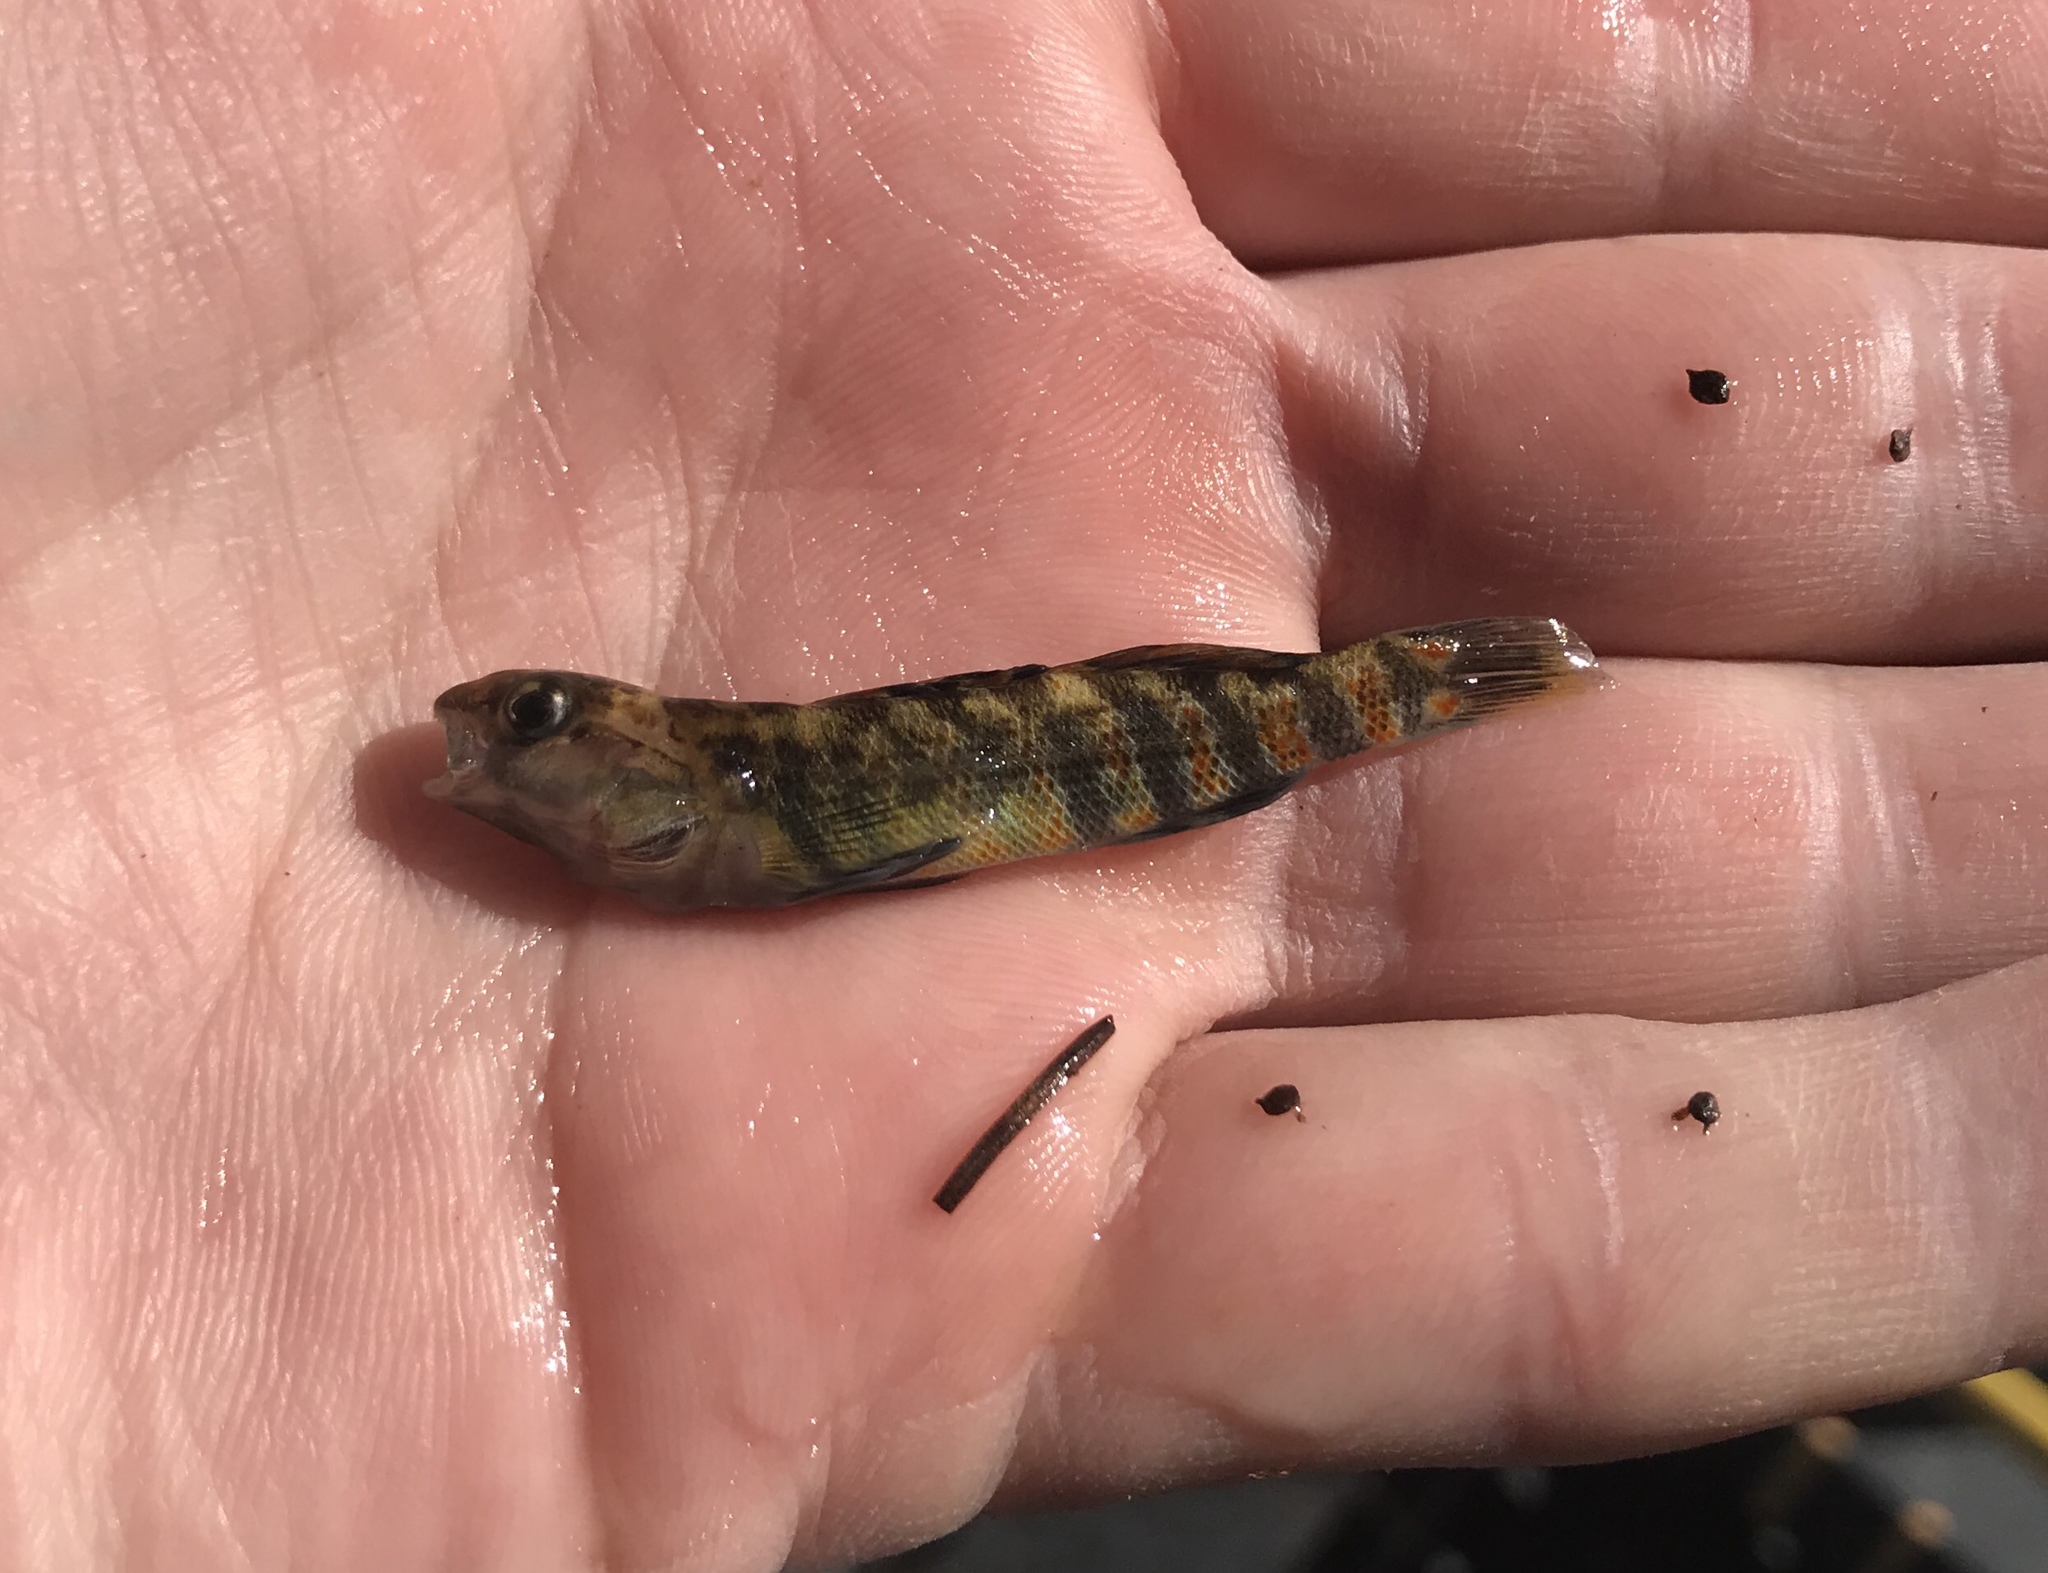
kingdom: Animalia
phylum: Chordata
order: Perciformes
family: Percidae
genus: Etheostoma
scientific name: Etheostoma pulchellum
